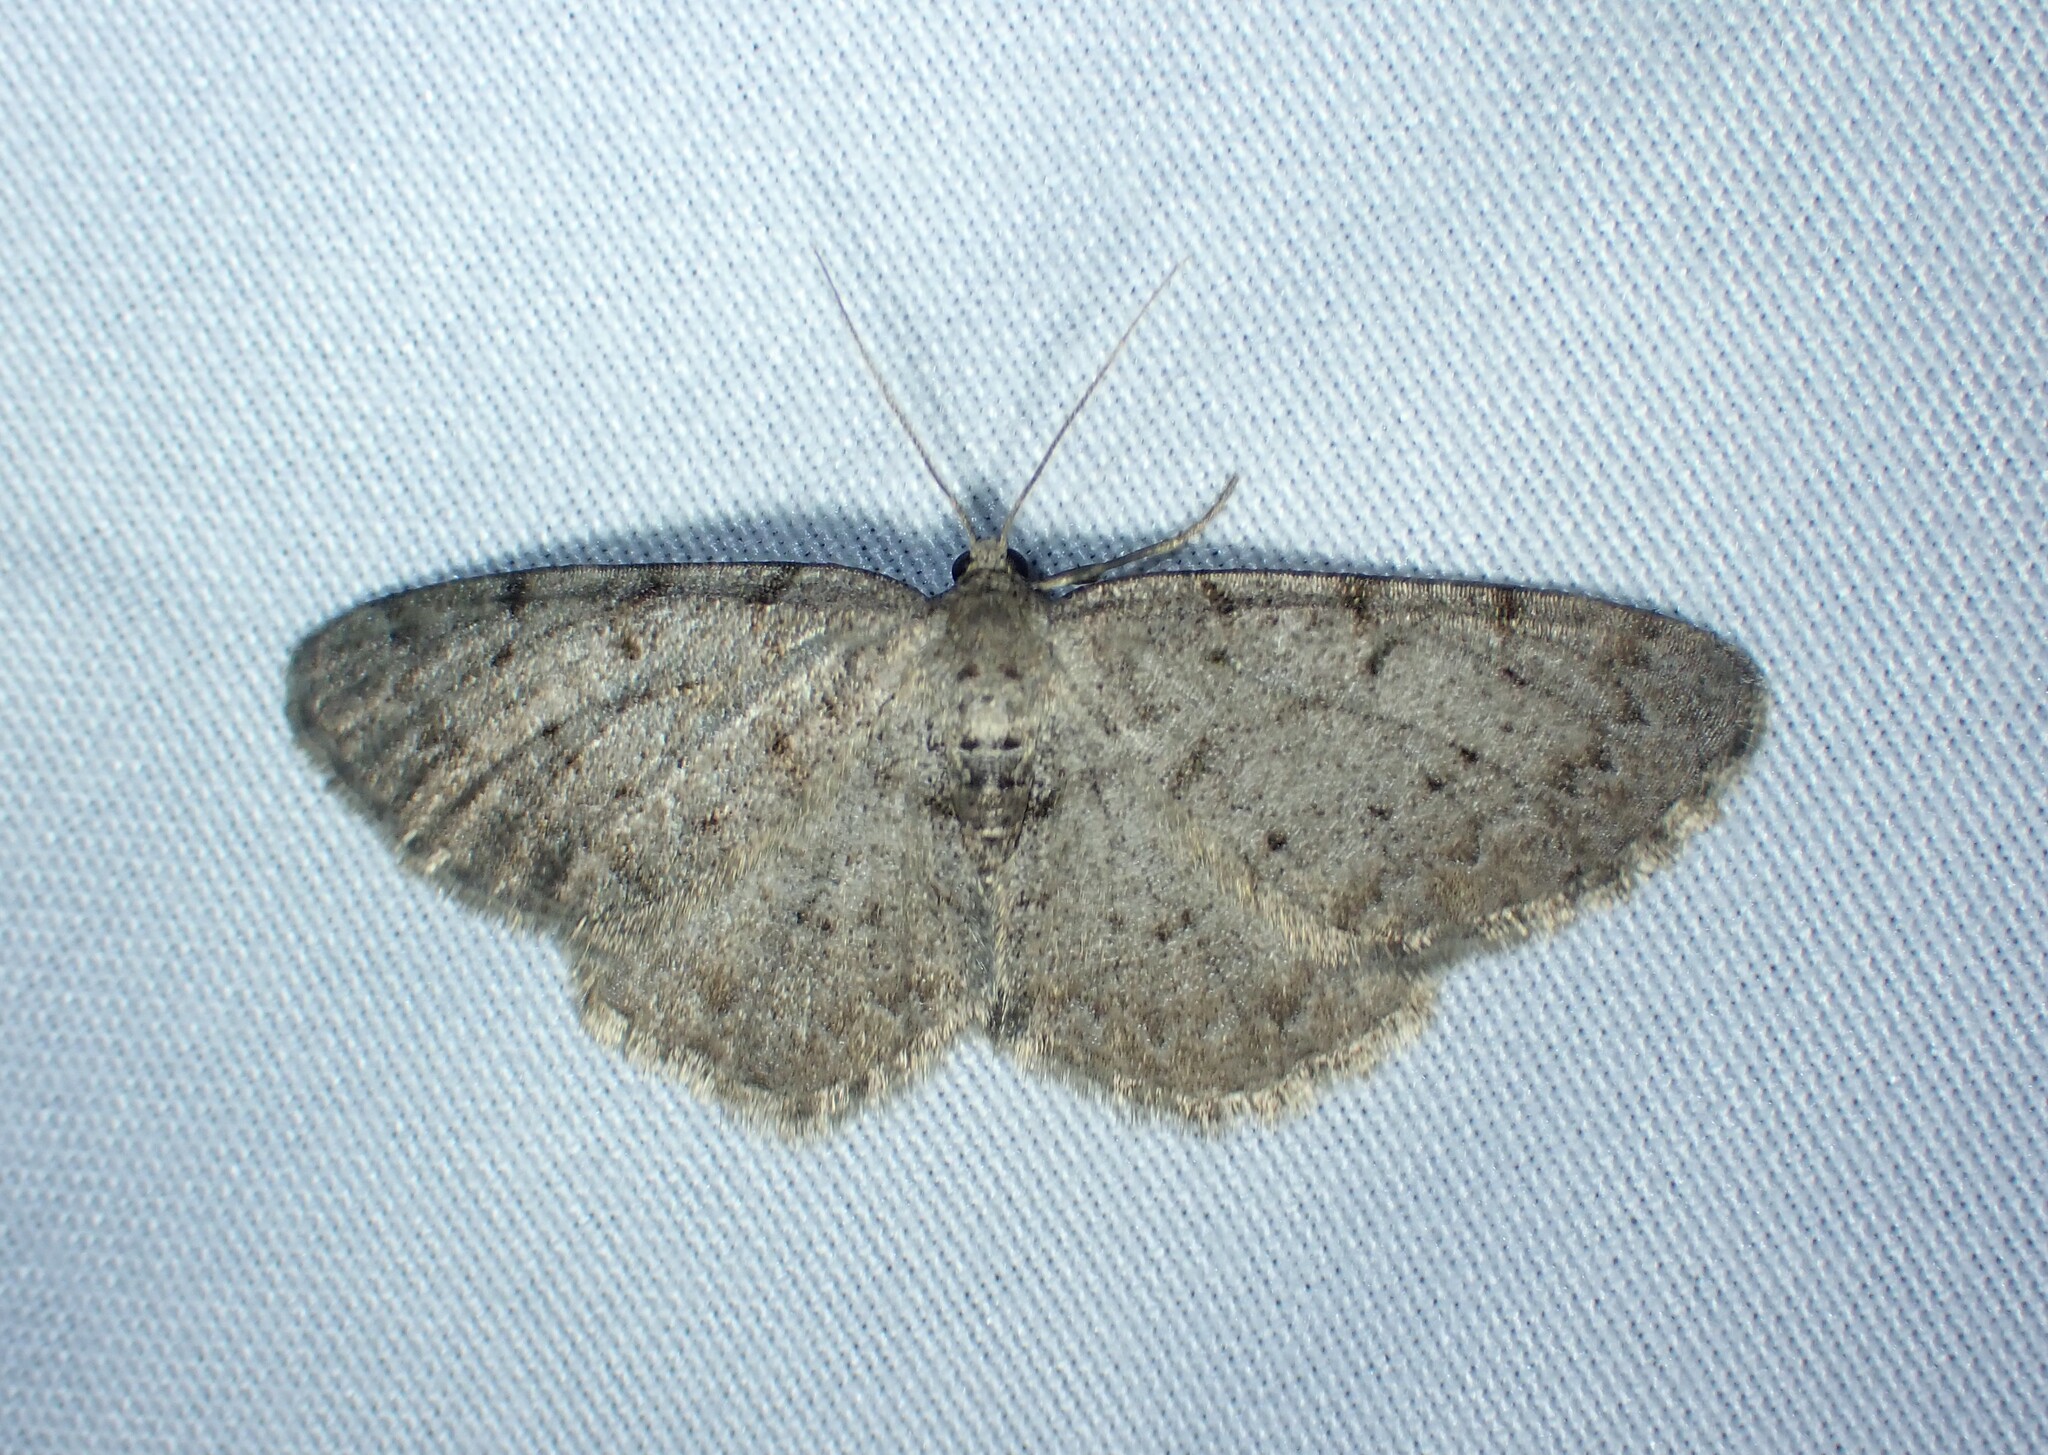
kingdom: Animalia
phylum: Arthropoda
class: Insecta
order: Lepidoptera
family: Geometridae
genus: Aethalura
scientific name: Aethalura intertexta
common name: Four-barred gray
